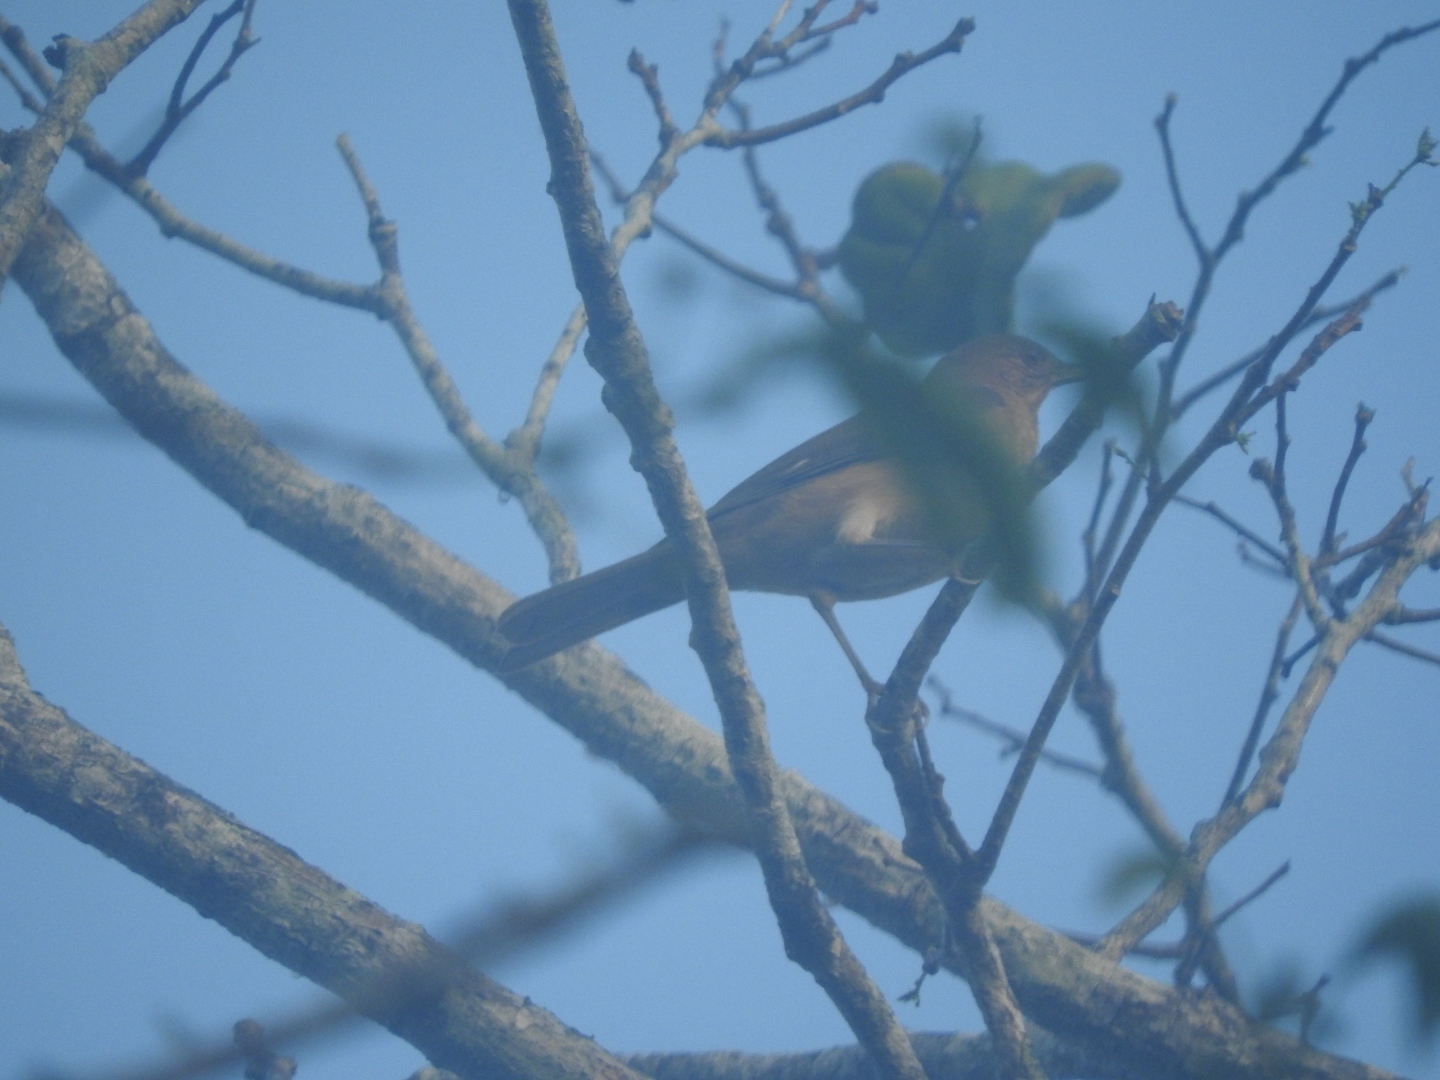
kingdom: Animalia
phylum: Chordata
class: Aves
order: Passeriformes
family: Turdidae
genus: Turdus
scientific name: Turdus grayi
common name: Clay-colored thrush
